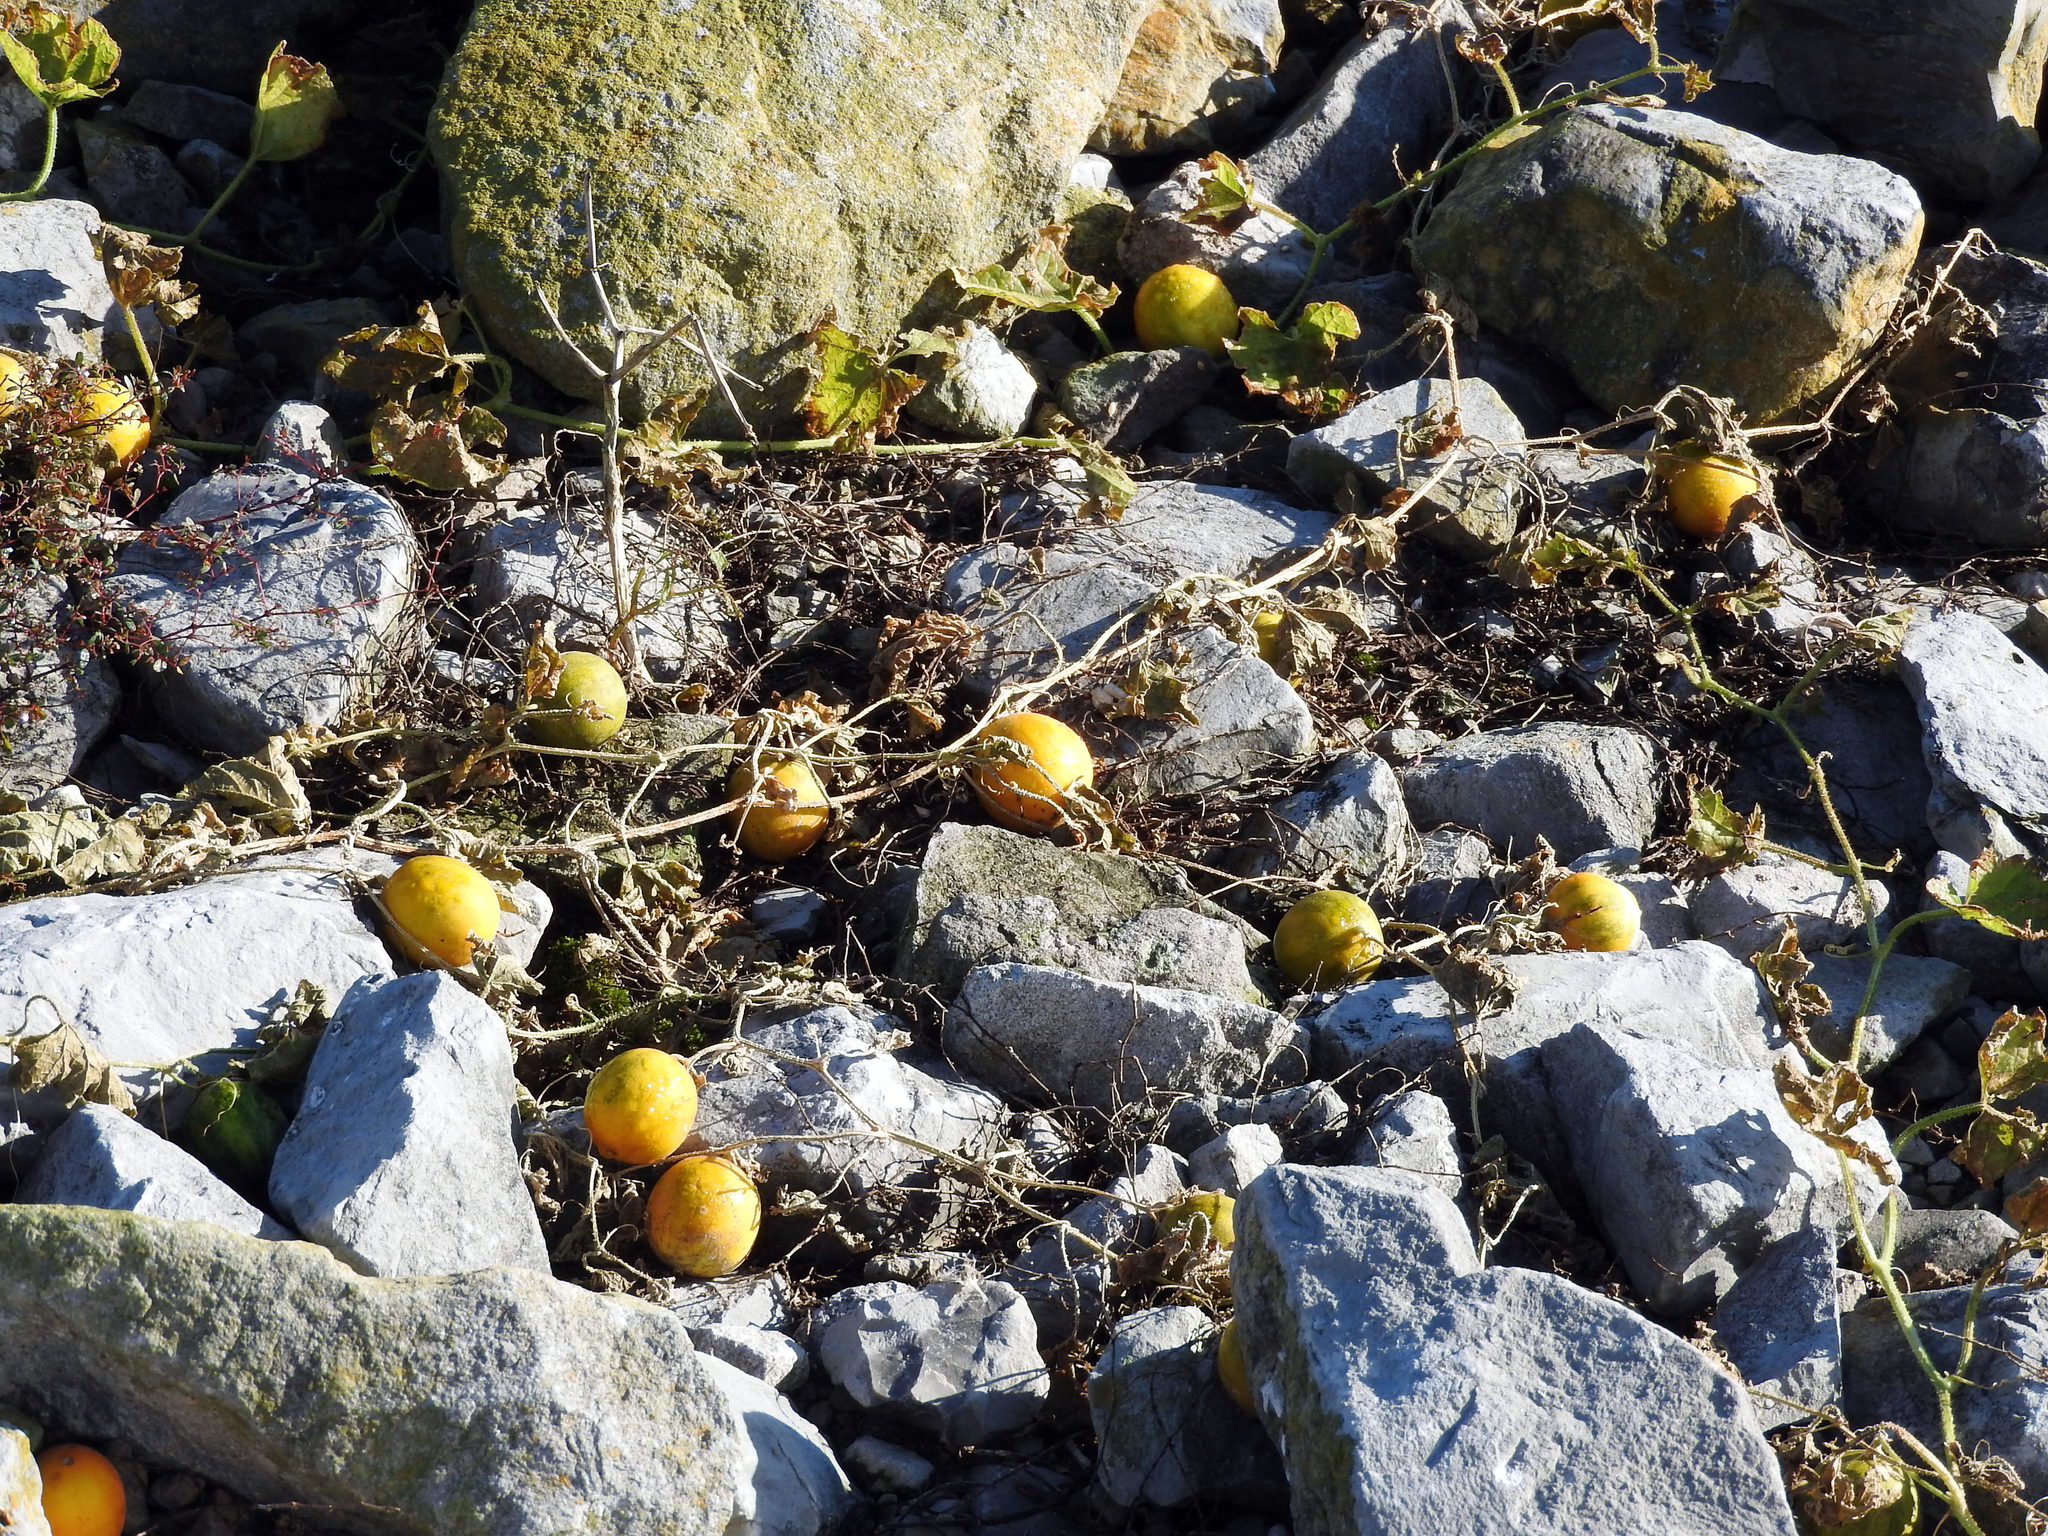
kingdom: Plantae
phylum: Tracheophyta
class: Magnoliopsida
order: Cucurbitales
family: Cucurbitaceae
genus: Cucumis
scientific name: Cucumis melo
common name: Melon
